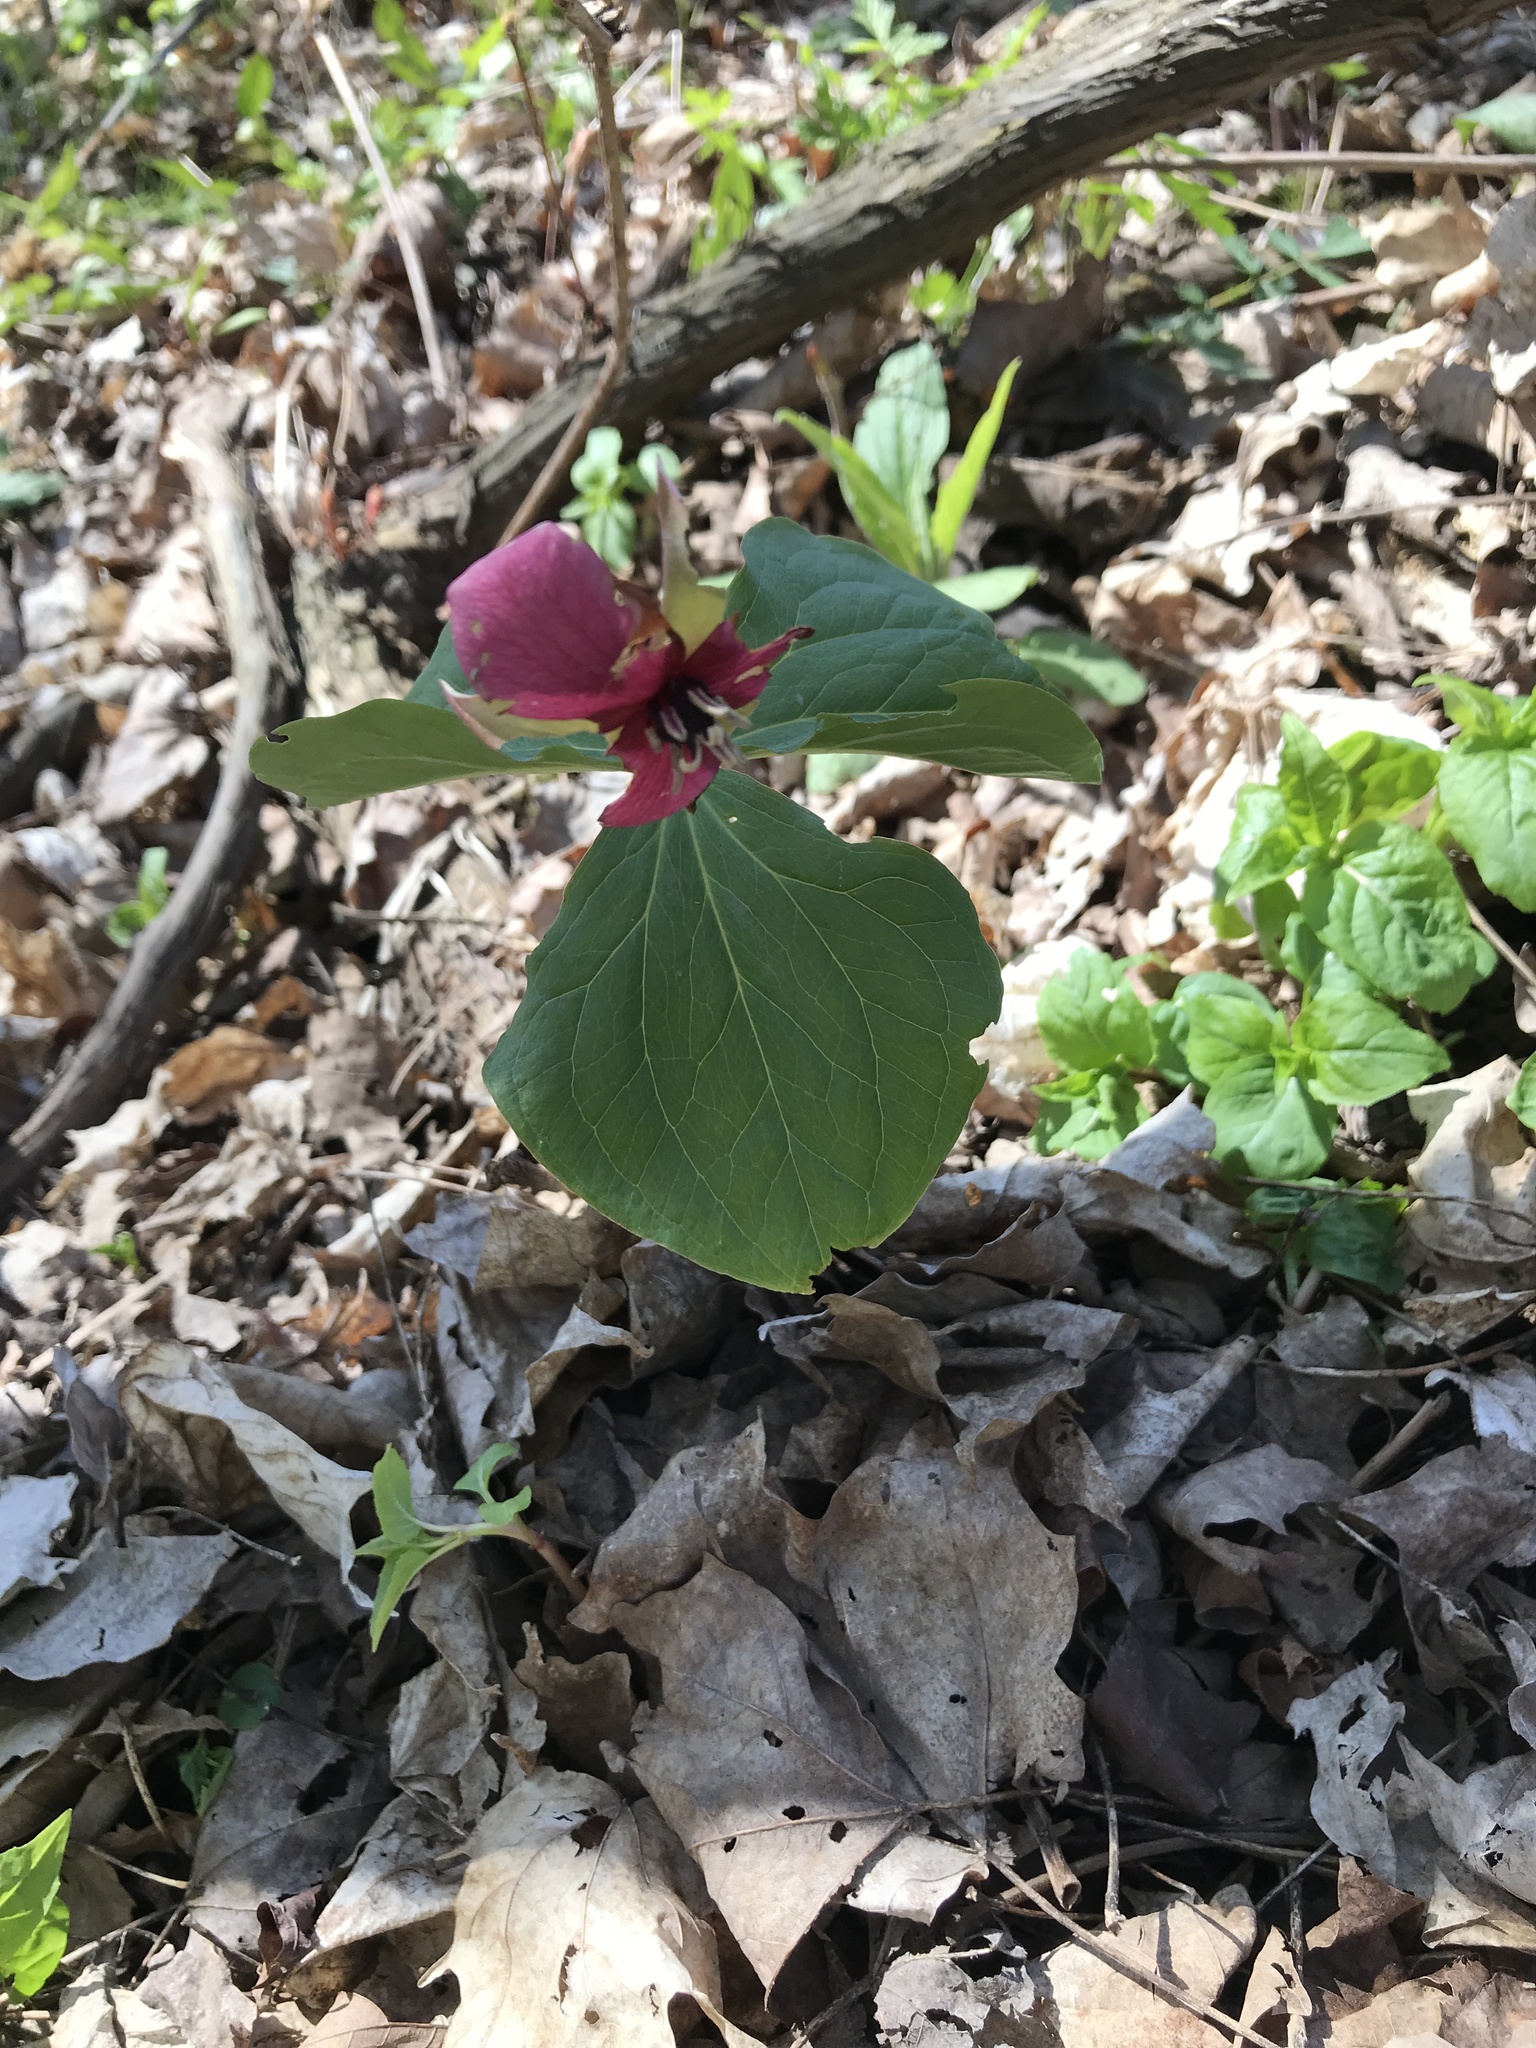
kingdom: Plantae
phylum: Tracheophyta
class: Liliopsida
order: Liliales
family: Melanthiaceae
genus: Trillium
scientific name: Trillium erectum
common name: Purple trillium
